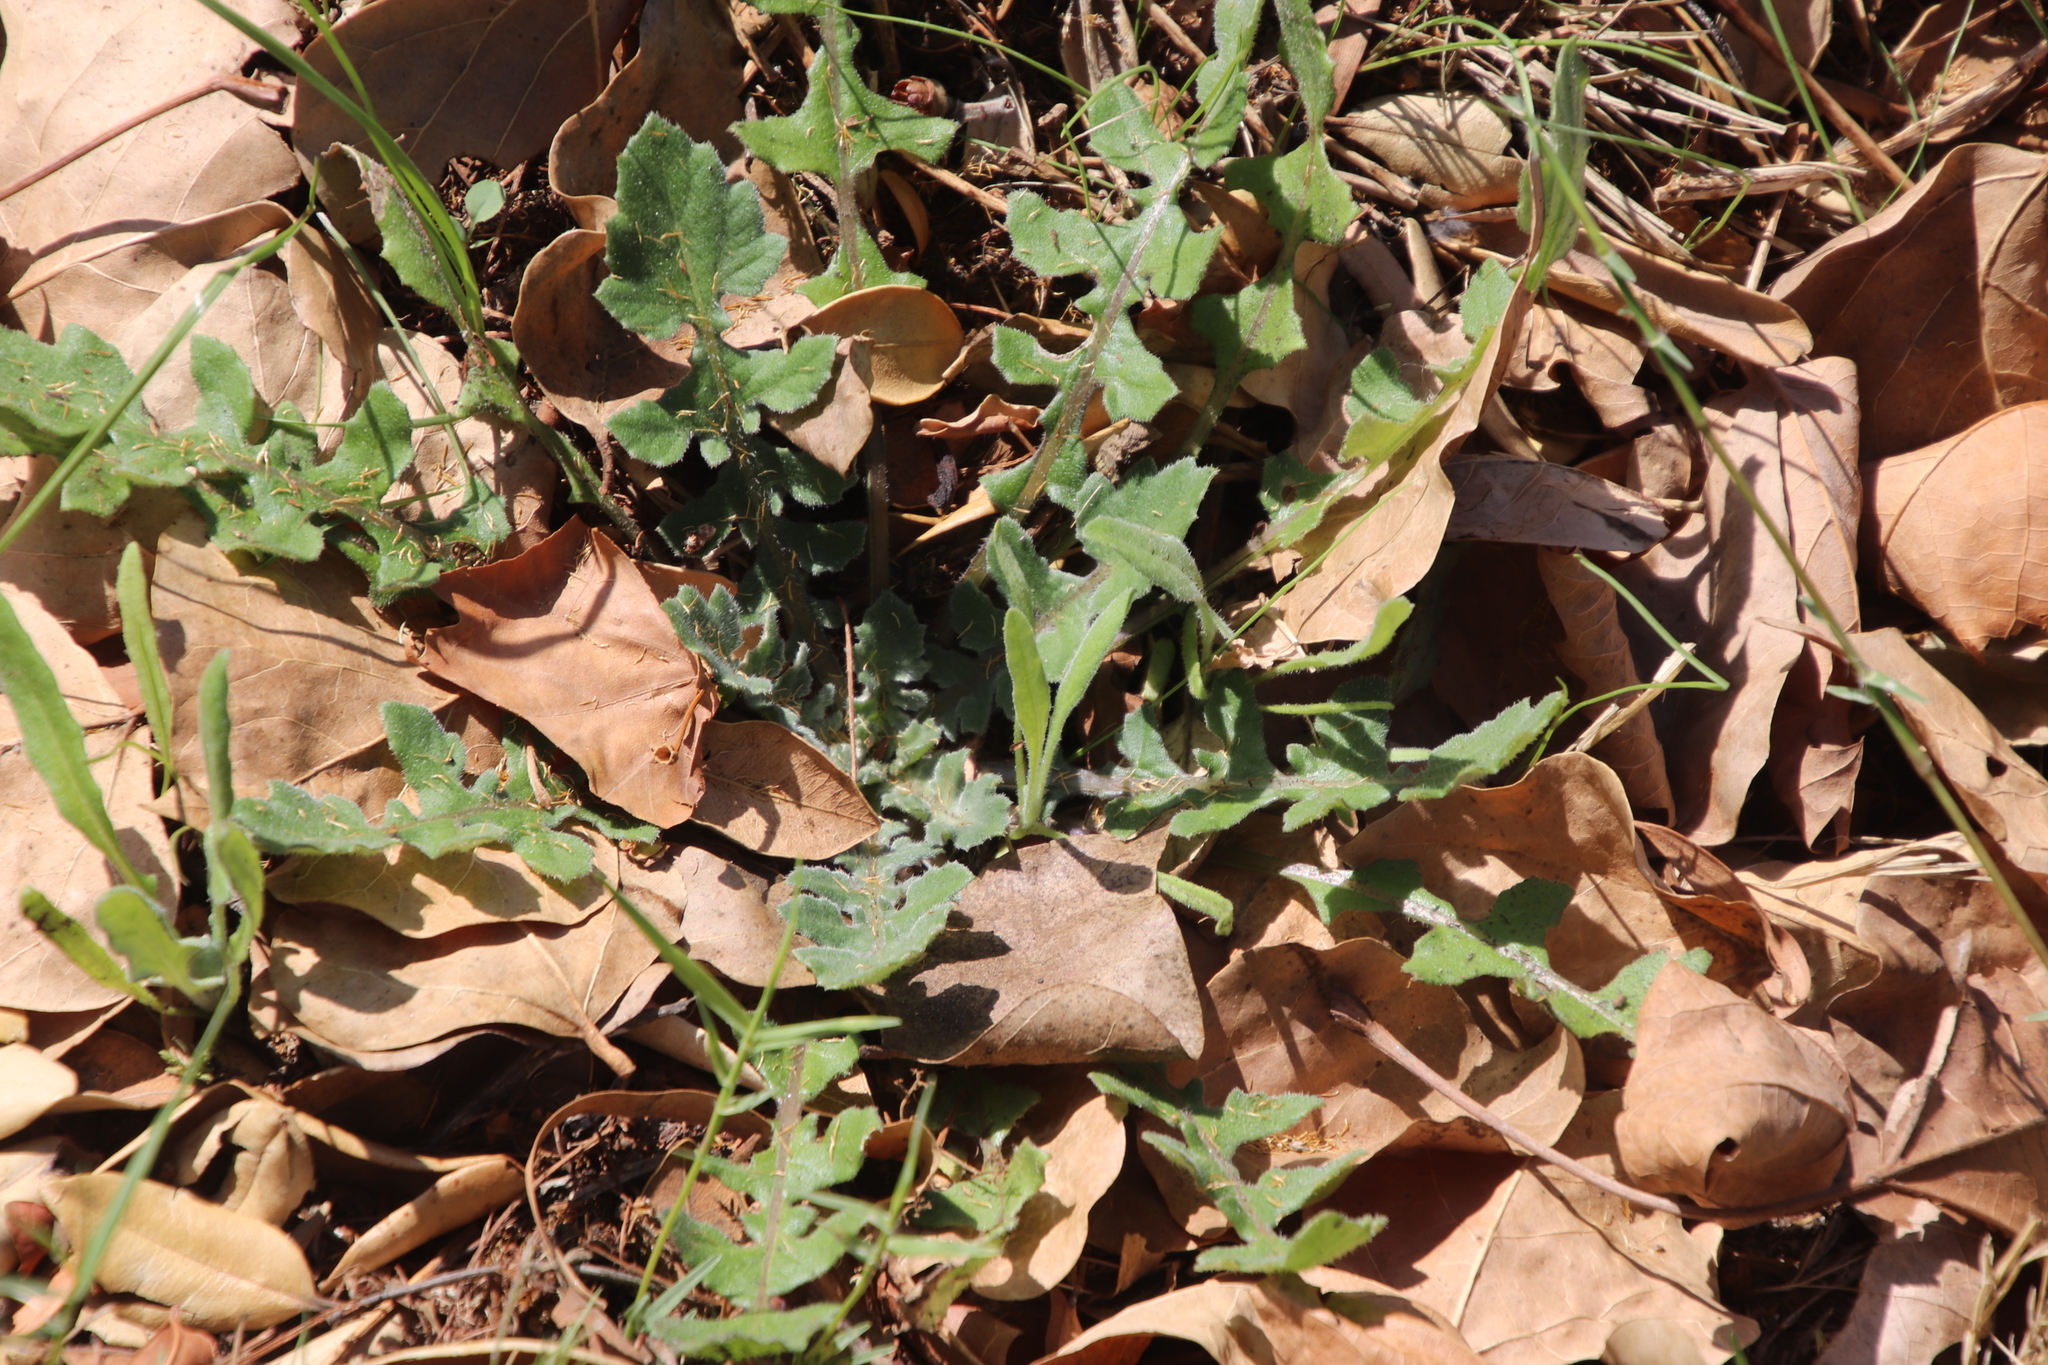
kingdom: Plantae
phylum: Tracheophyta
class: Magnoliopsida
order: Asterales
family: Asteraceae
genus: Arctotheca
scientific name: Arctotheca calendula
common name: Capeweed
